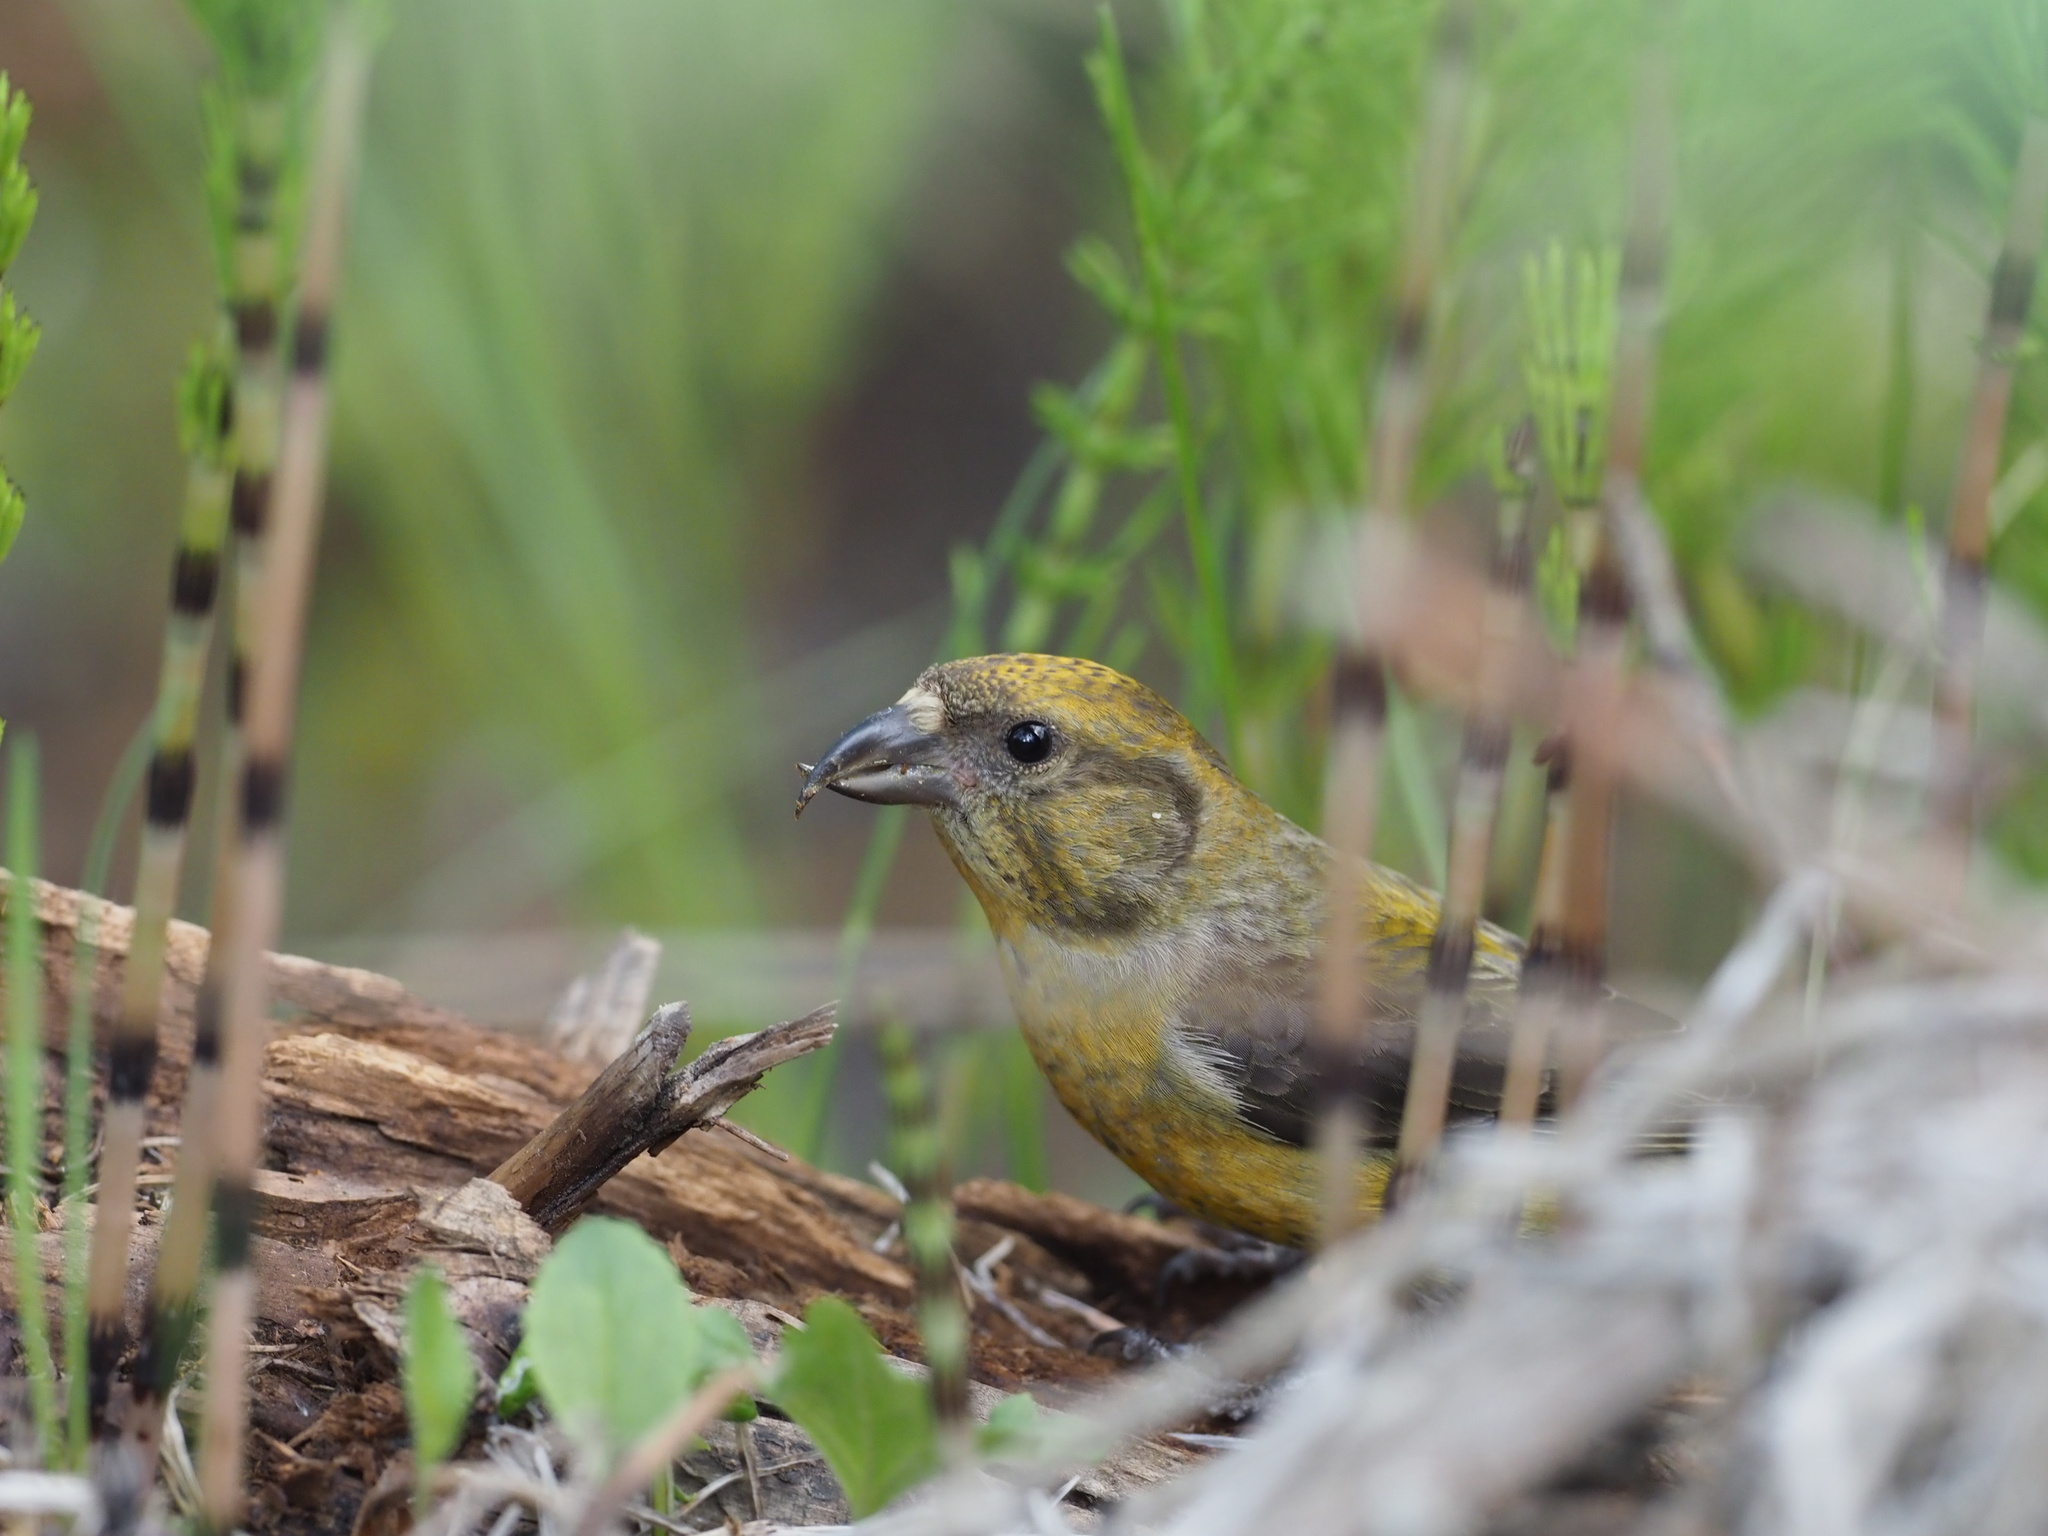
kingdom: Animalia
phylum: Chordata
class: Aves
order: Passeriformes
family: Fringillidae
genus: Loxia
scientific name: Loxia curvirostra
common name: Red crossbill
